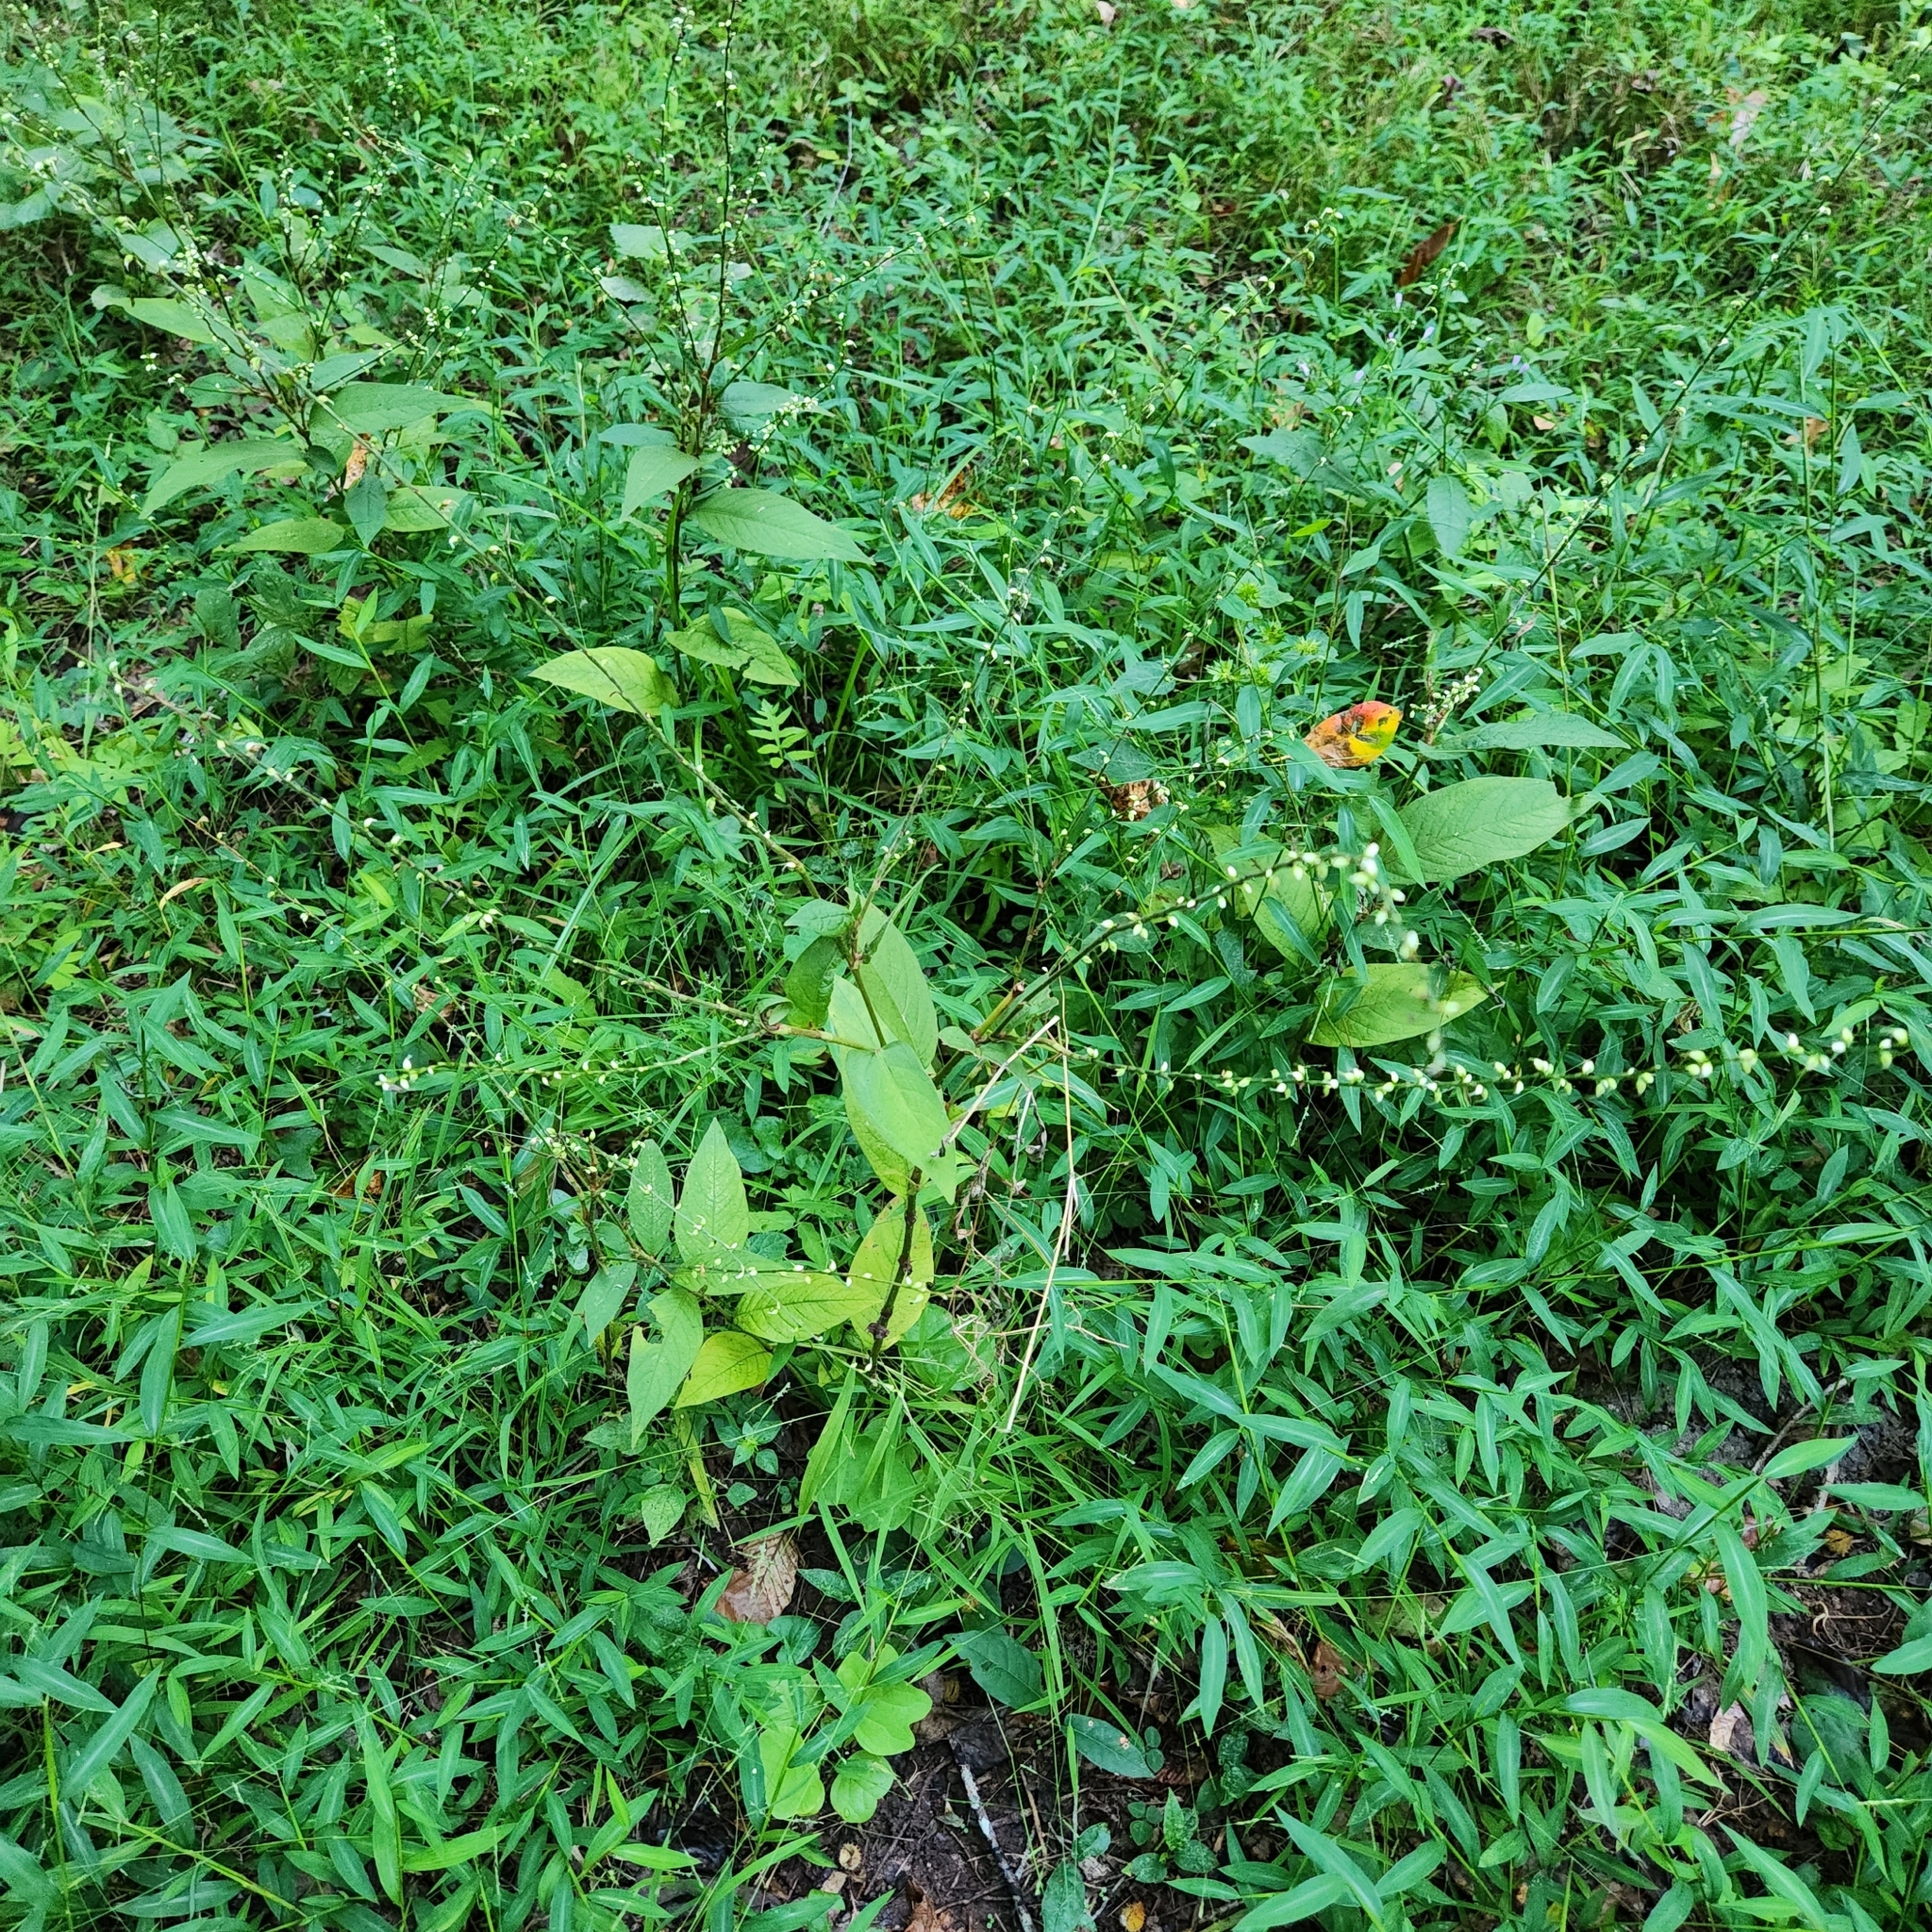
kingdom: Plantae
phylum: Tracheophyta
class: Magnoliopsida
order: Caryophyllales
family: Polygonaceae
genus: Persicaria
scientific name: Persicaria virginiana
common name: Jumpseed
